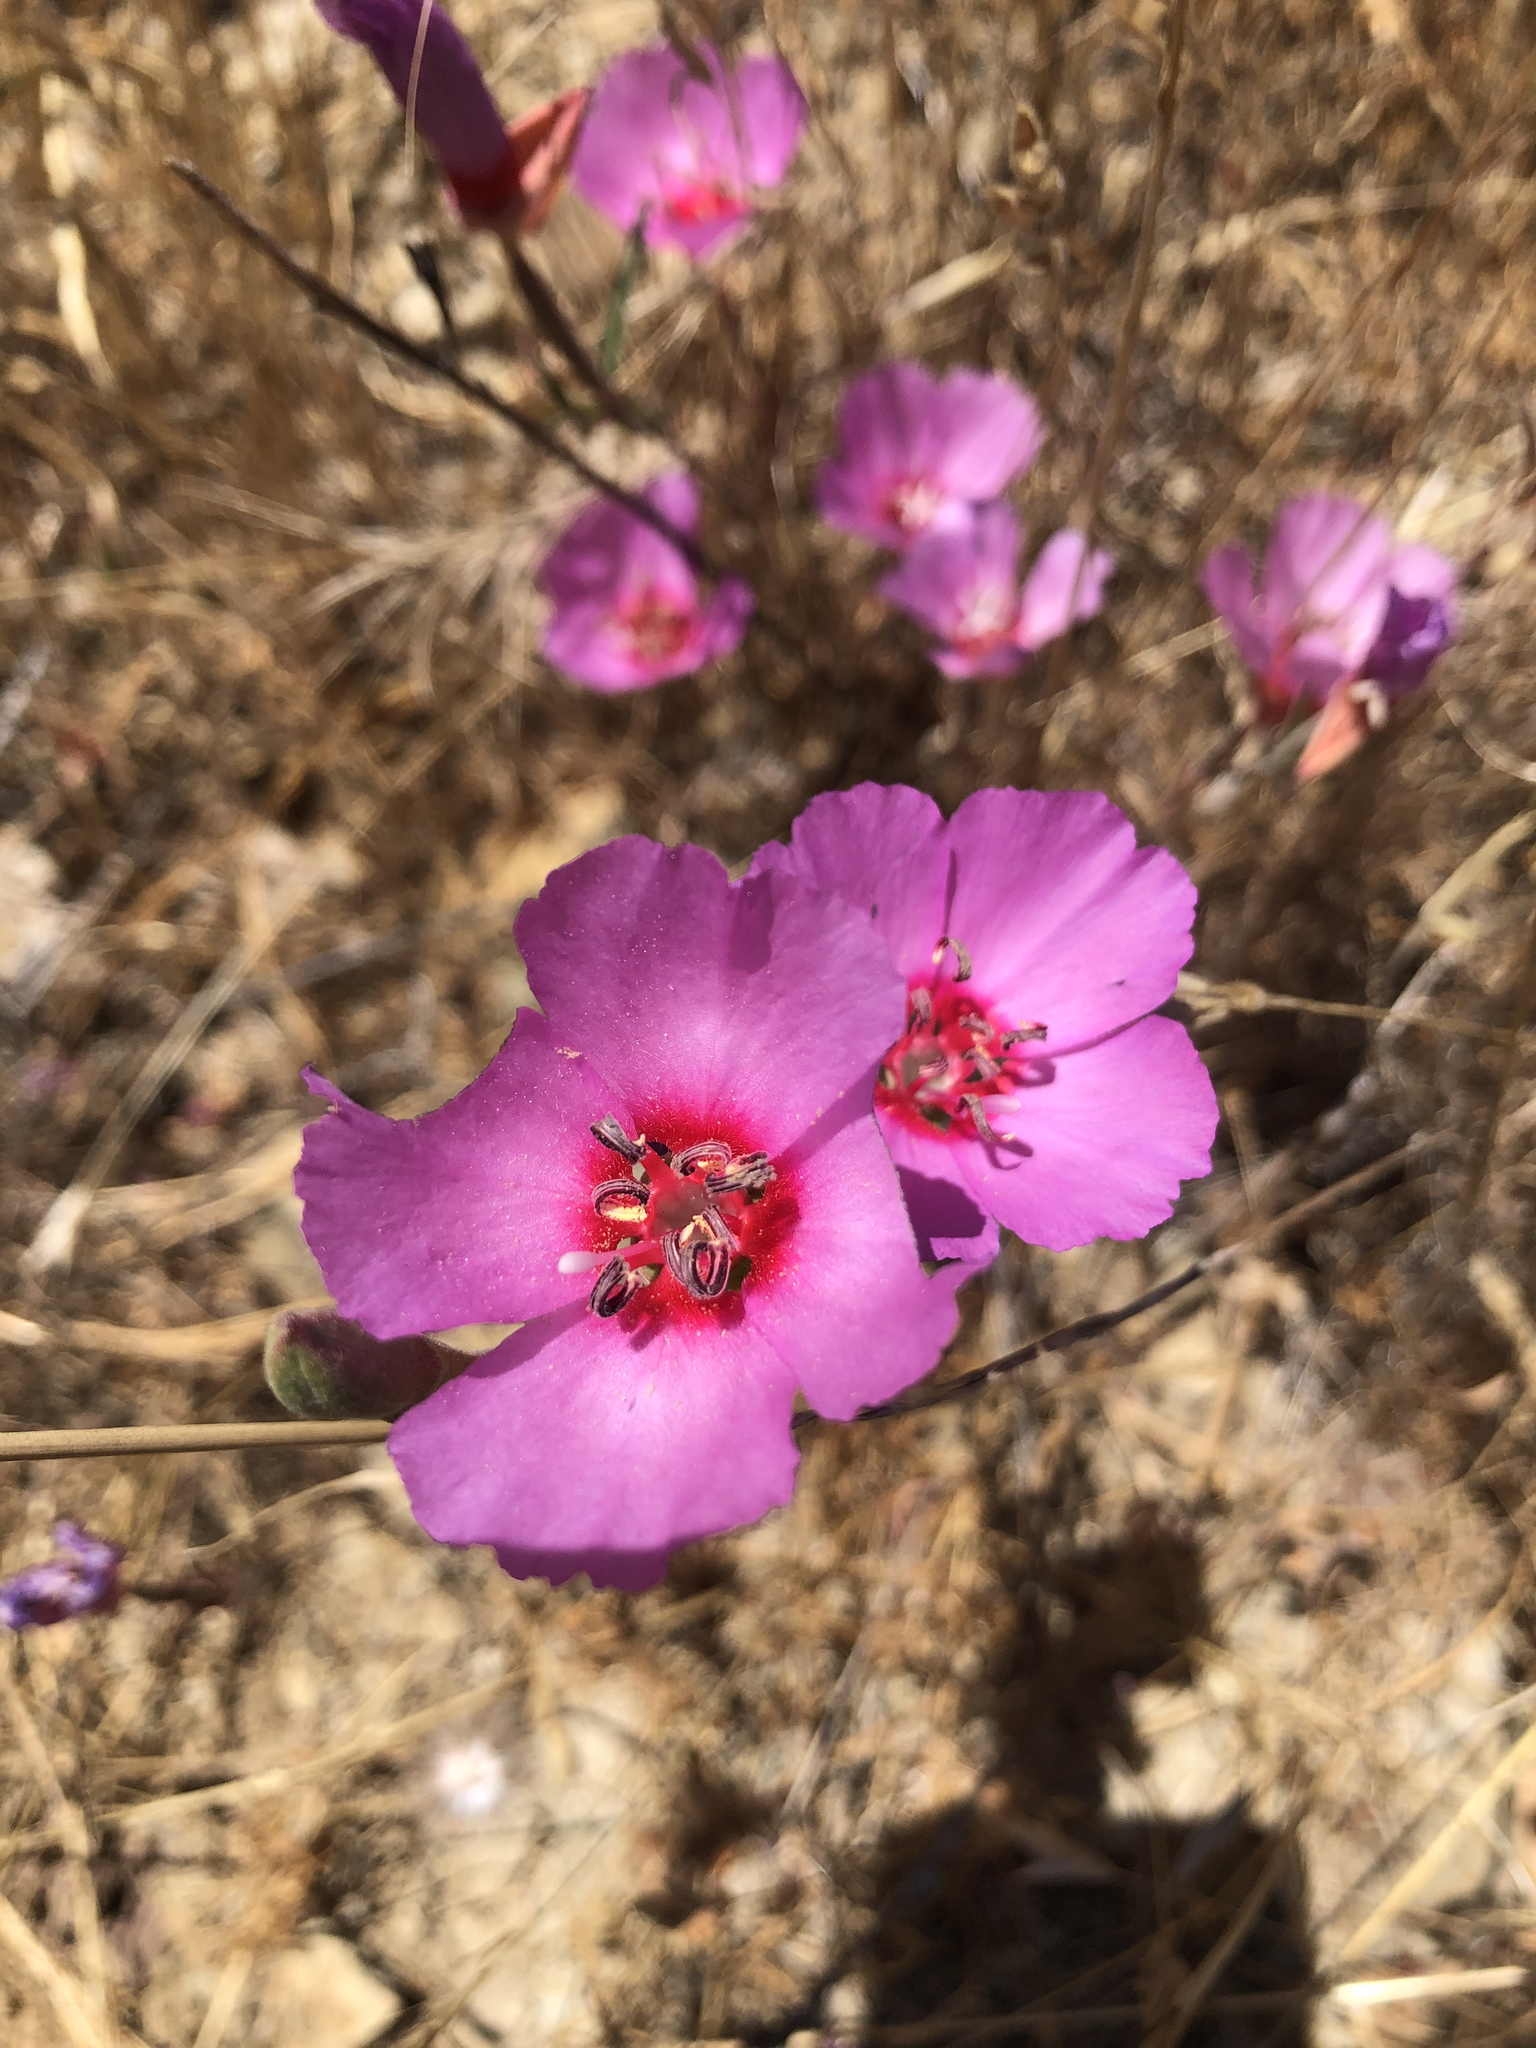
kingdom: Plantae
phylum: Tracheophyta
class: Magnoliopsida
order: Myrtales
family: Onagraceae
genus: Clarkia
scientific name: Clarkia rubicunda
